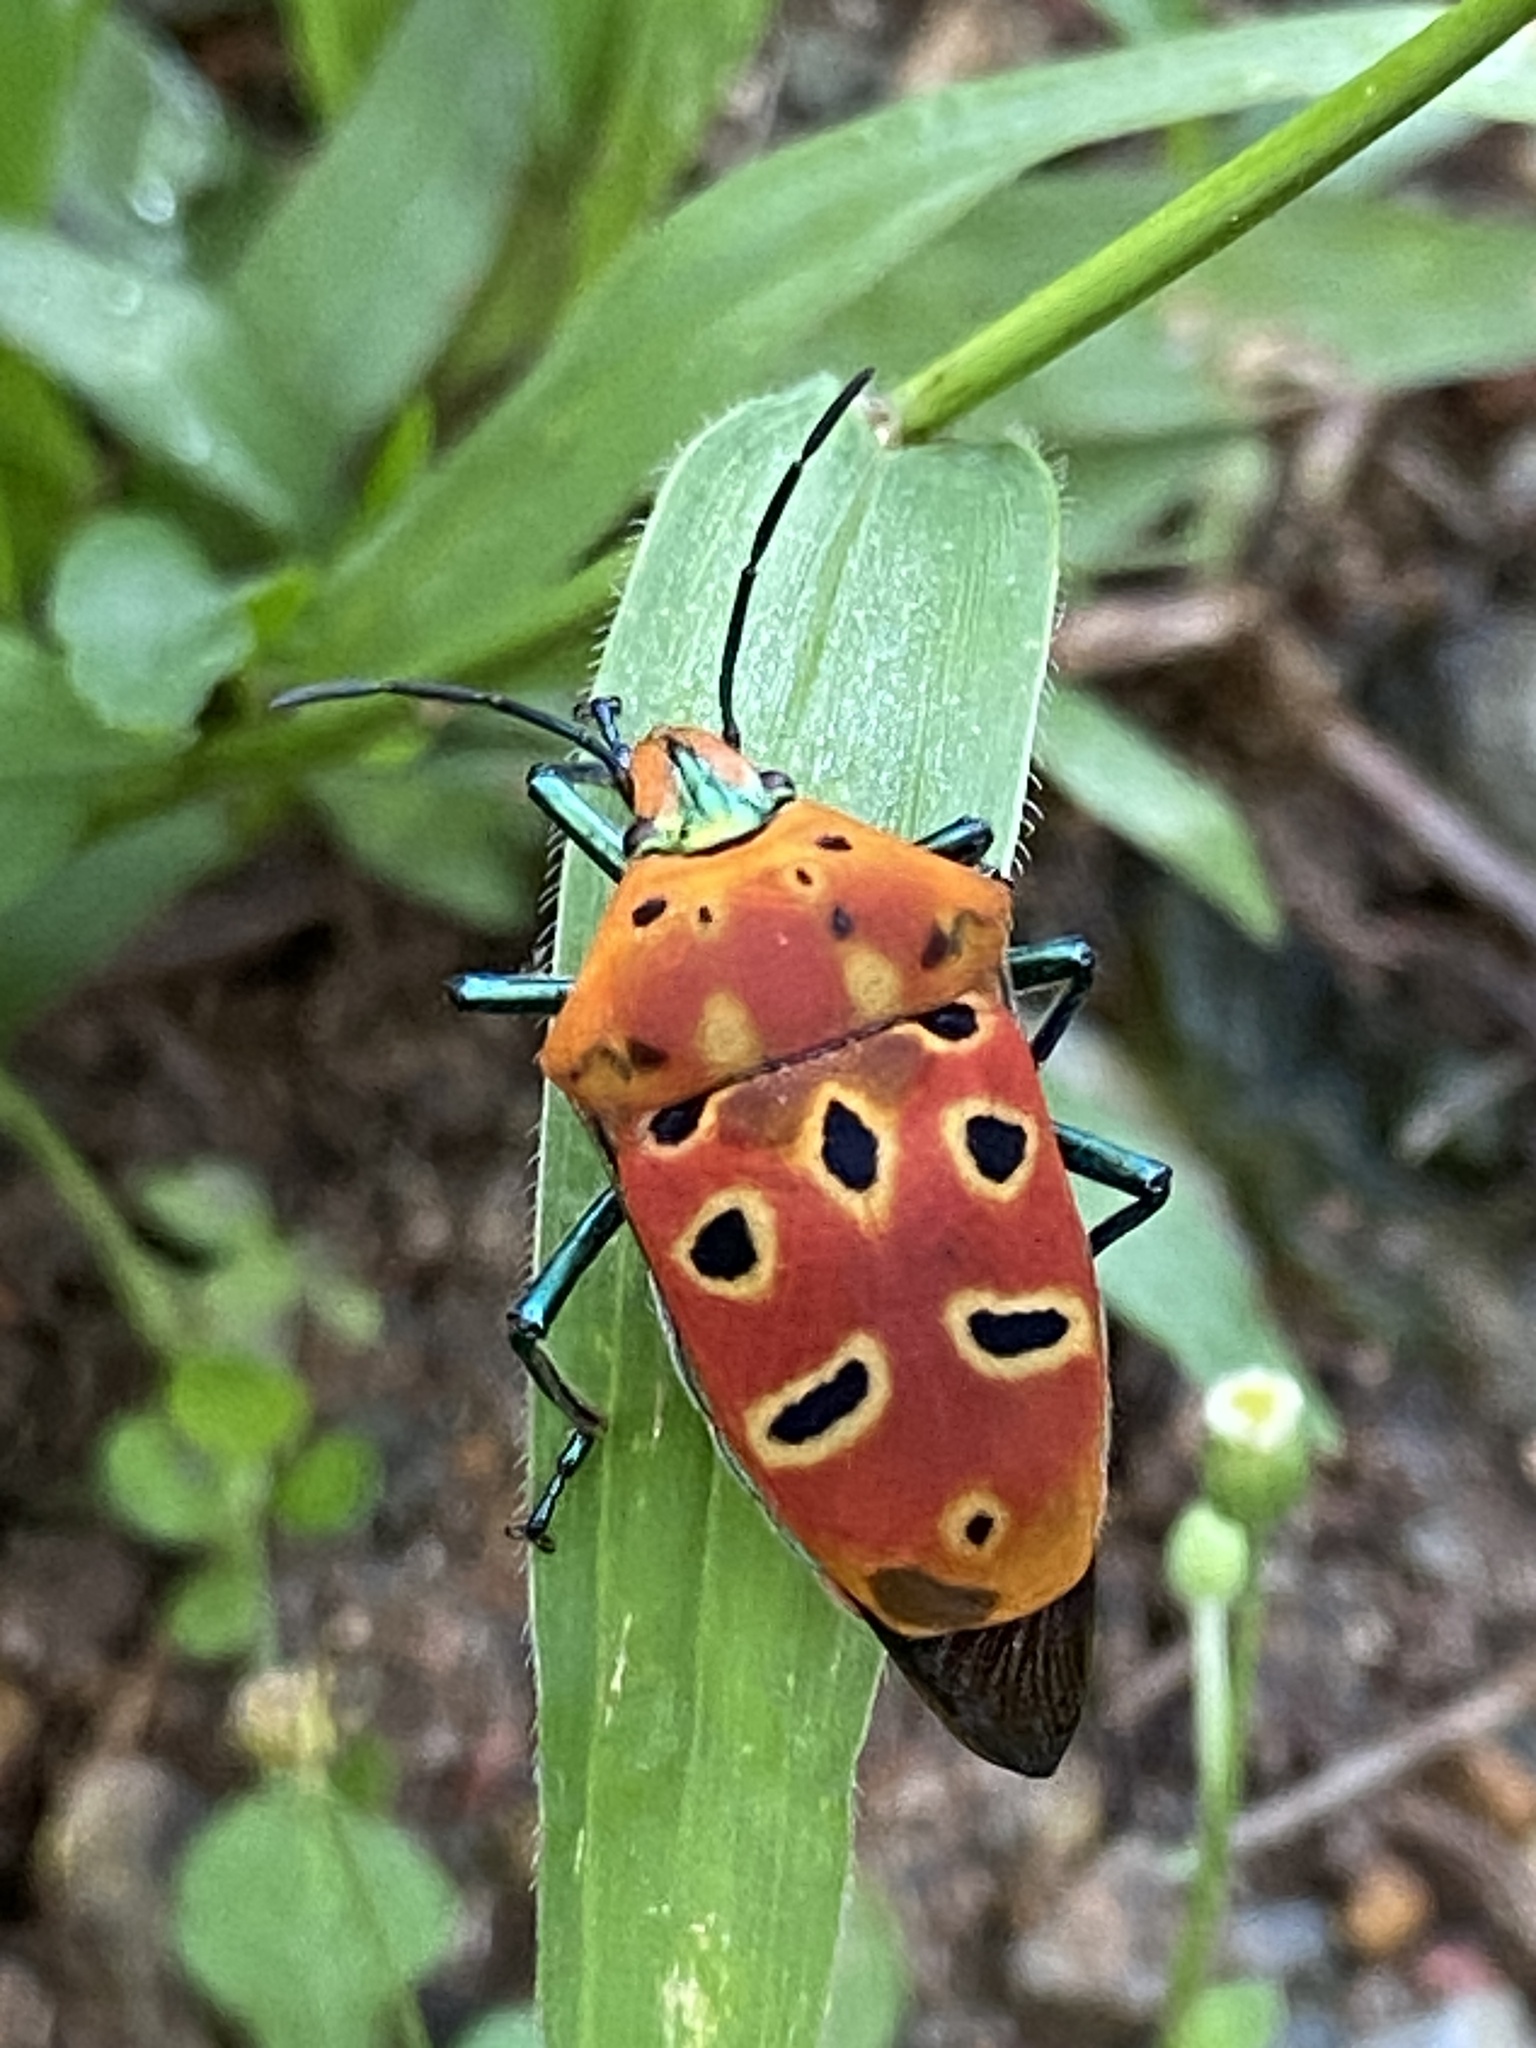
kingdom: Animalia
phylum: Arthropoda
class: Insecta
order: Hemiptera
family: Scutelleridae
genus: Cantao
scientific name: Cantao ocellatus
